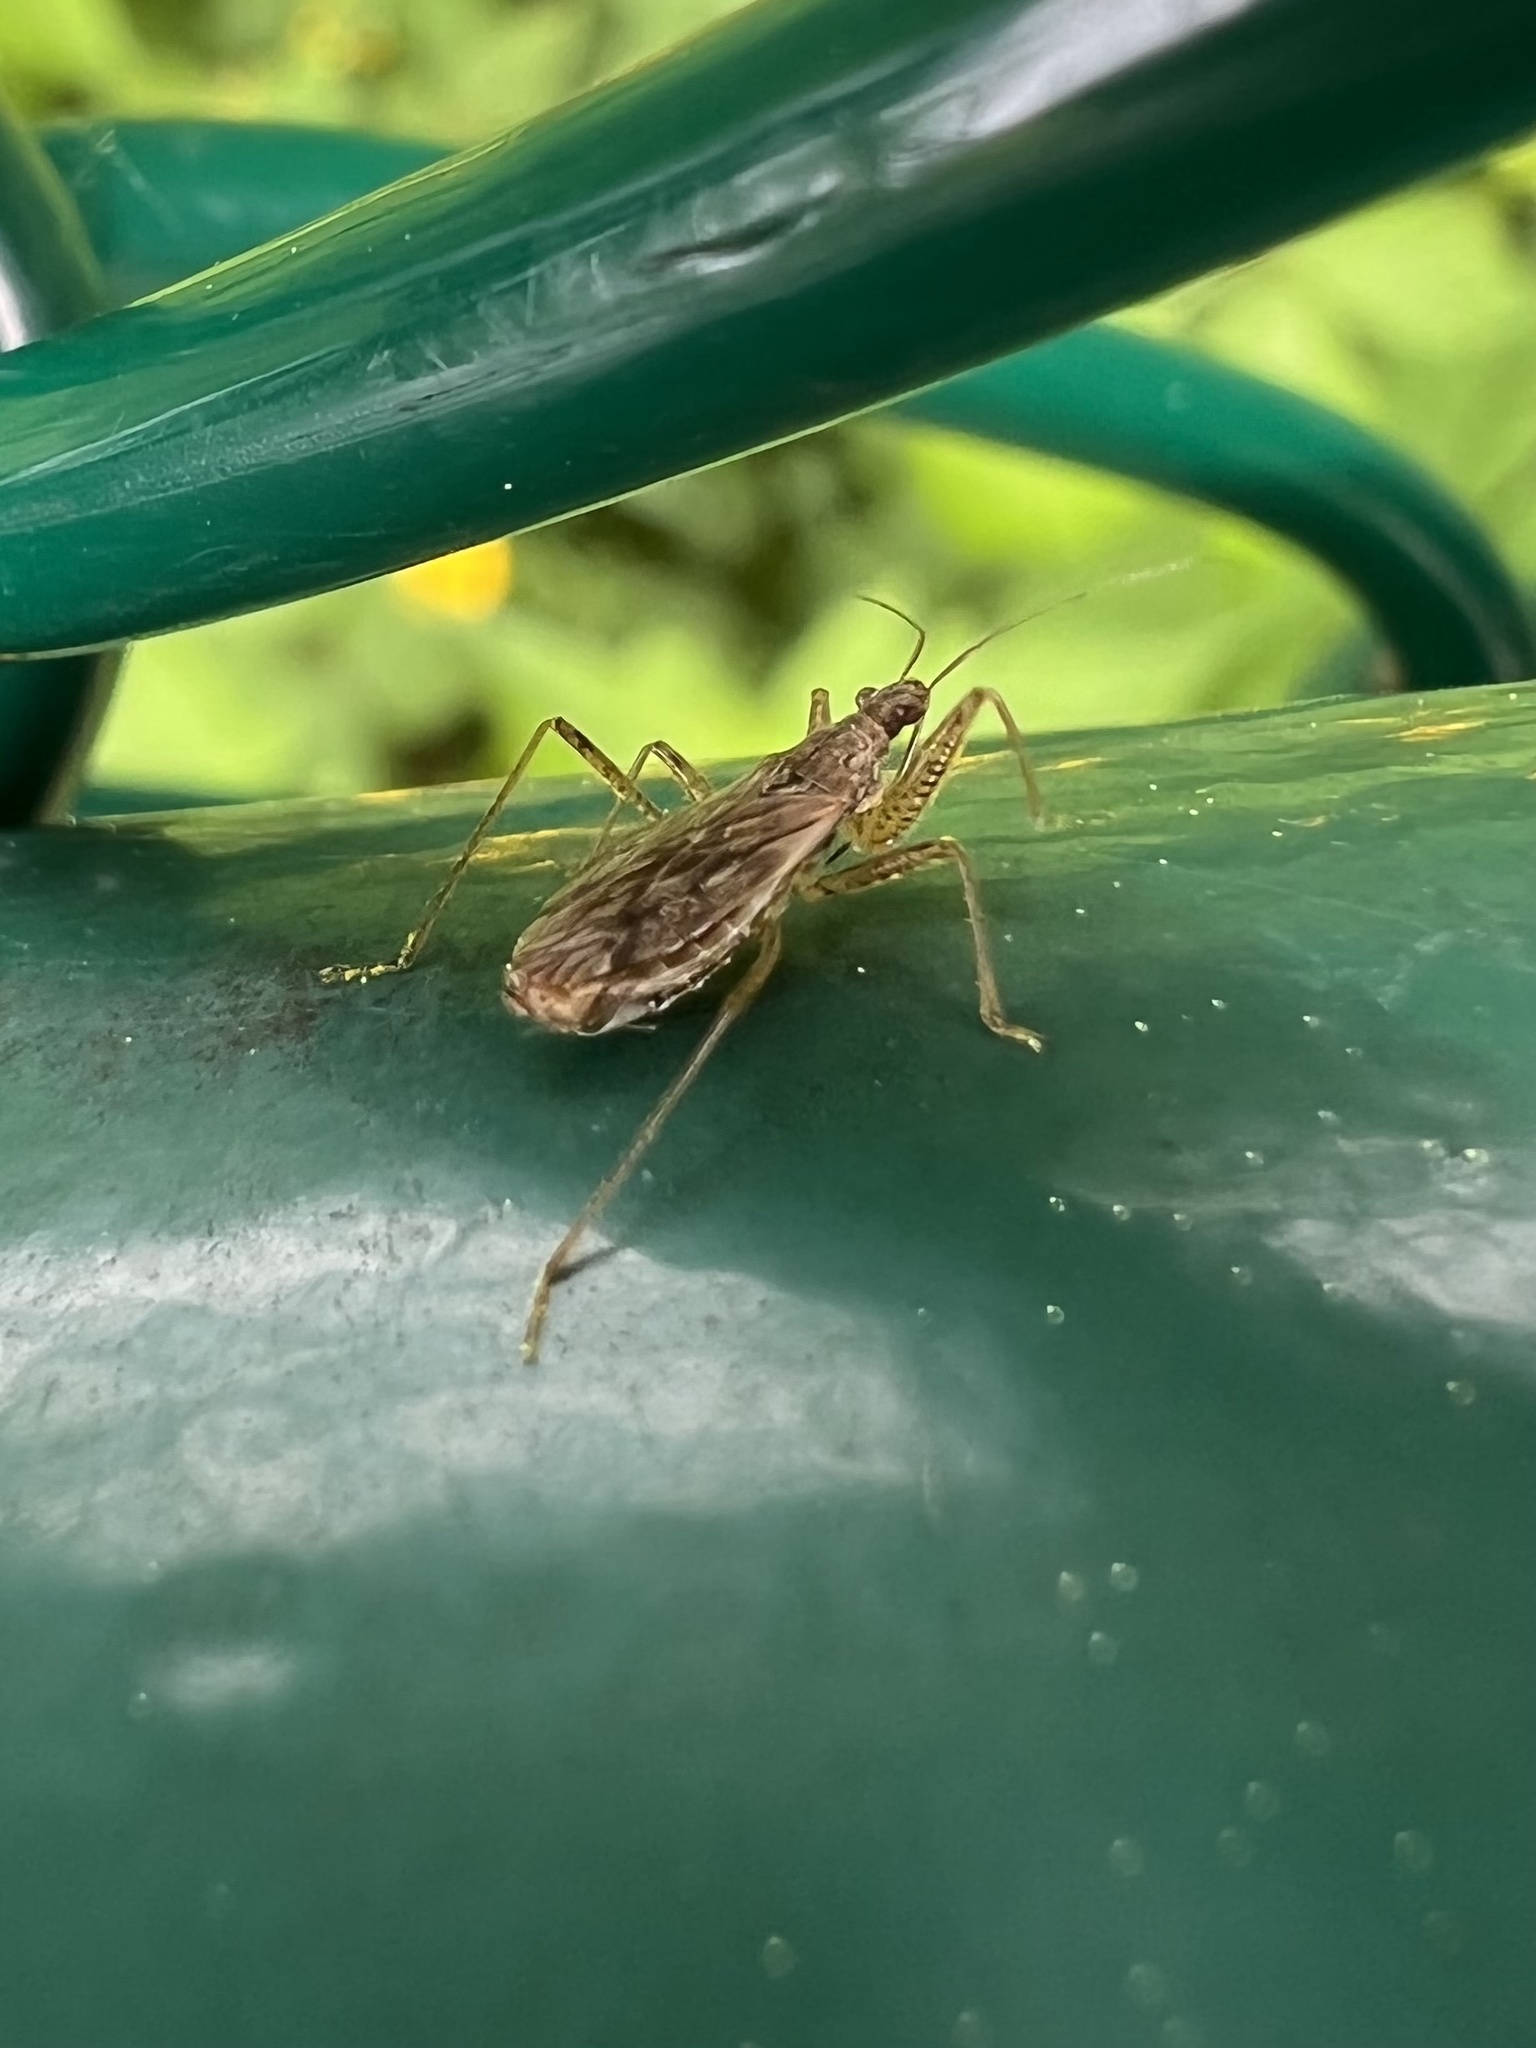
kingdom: Animalia
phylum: Arthropoda
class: Insecta
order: Hemiptera
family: Nabidae
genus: Nabis
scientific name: Nabis roseipennis
